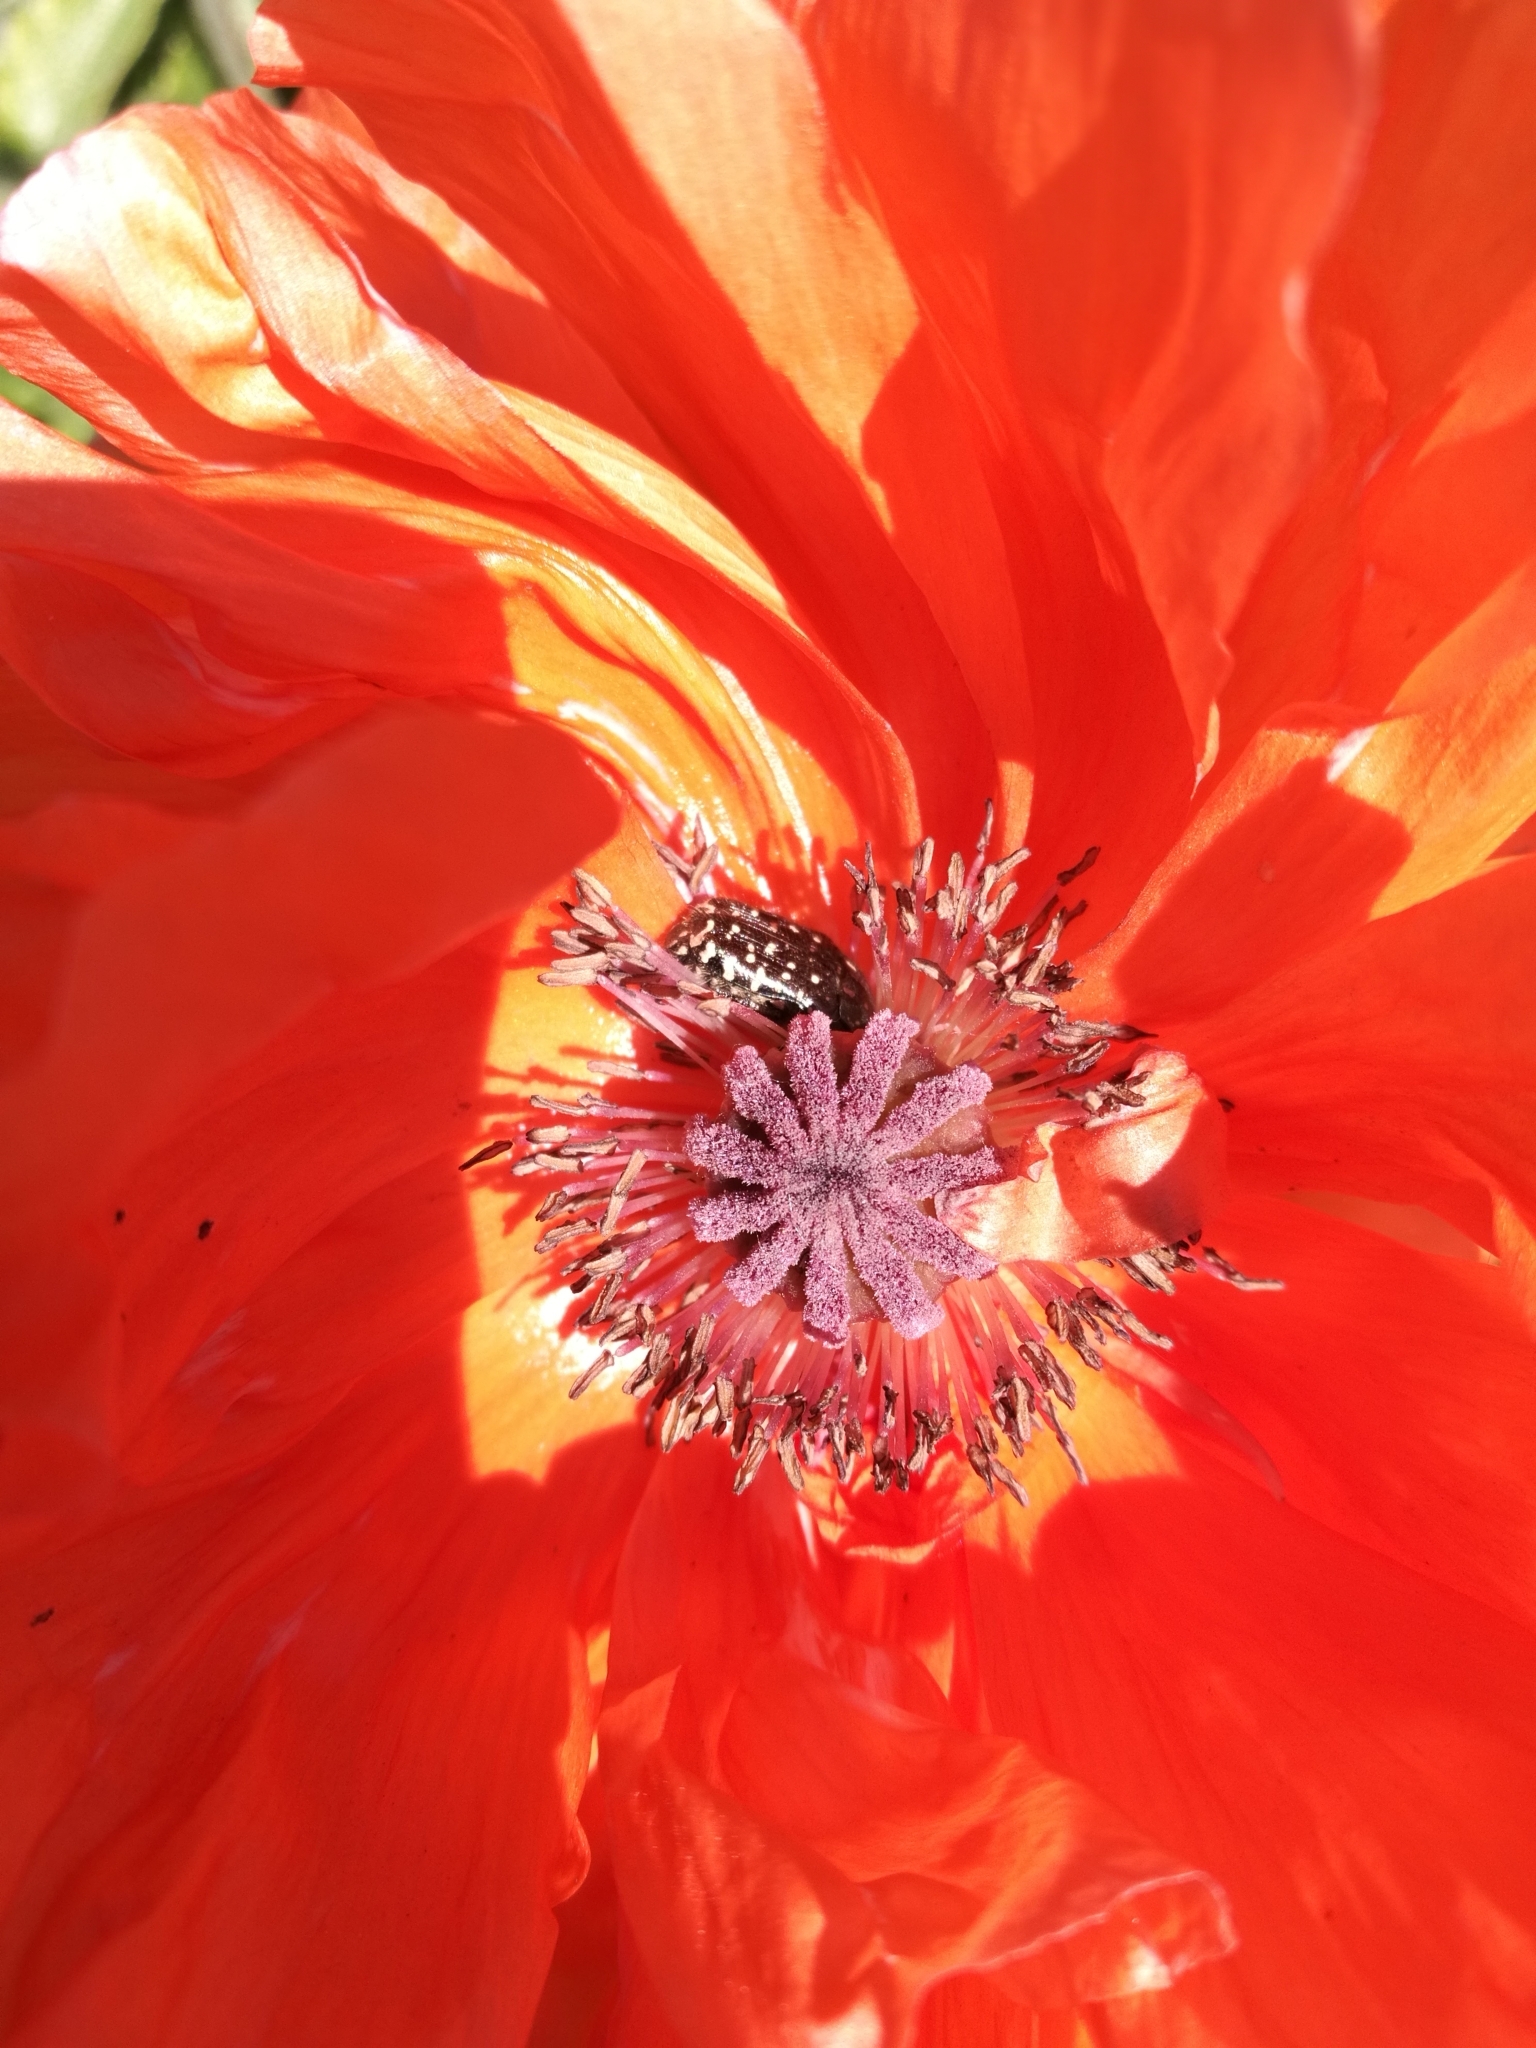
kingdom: Animalia
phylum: Arthropoda
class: Insecta
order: Coleoptera
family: Scarabaeidae
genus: Oxythyrea
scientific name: Oxythyrea funesta
